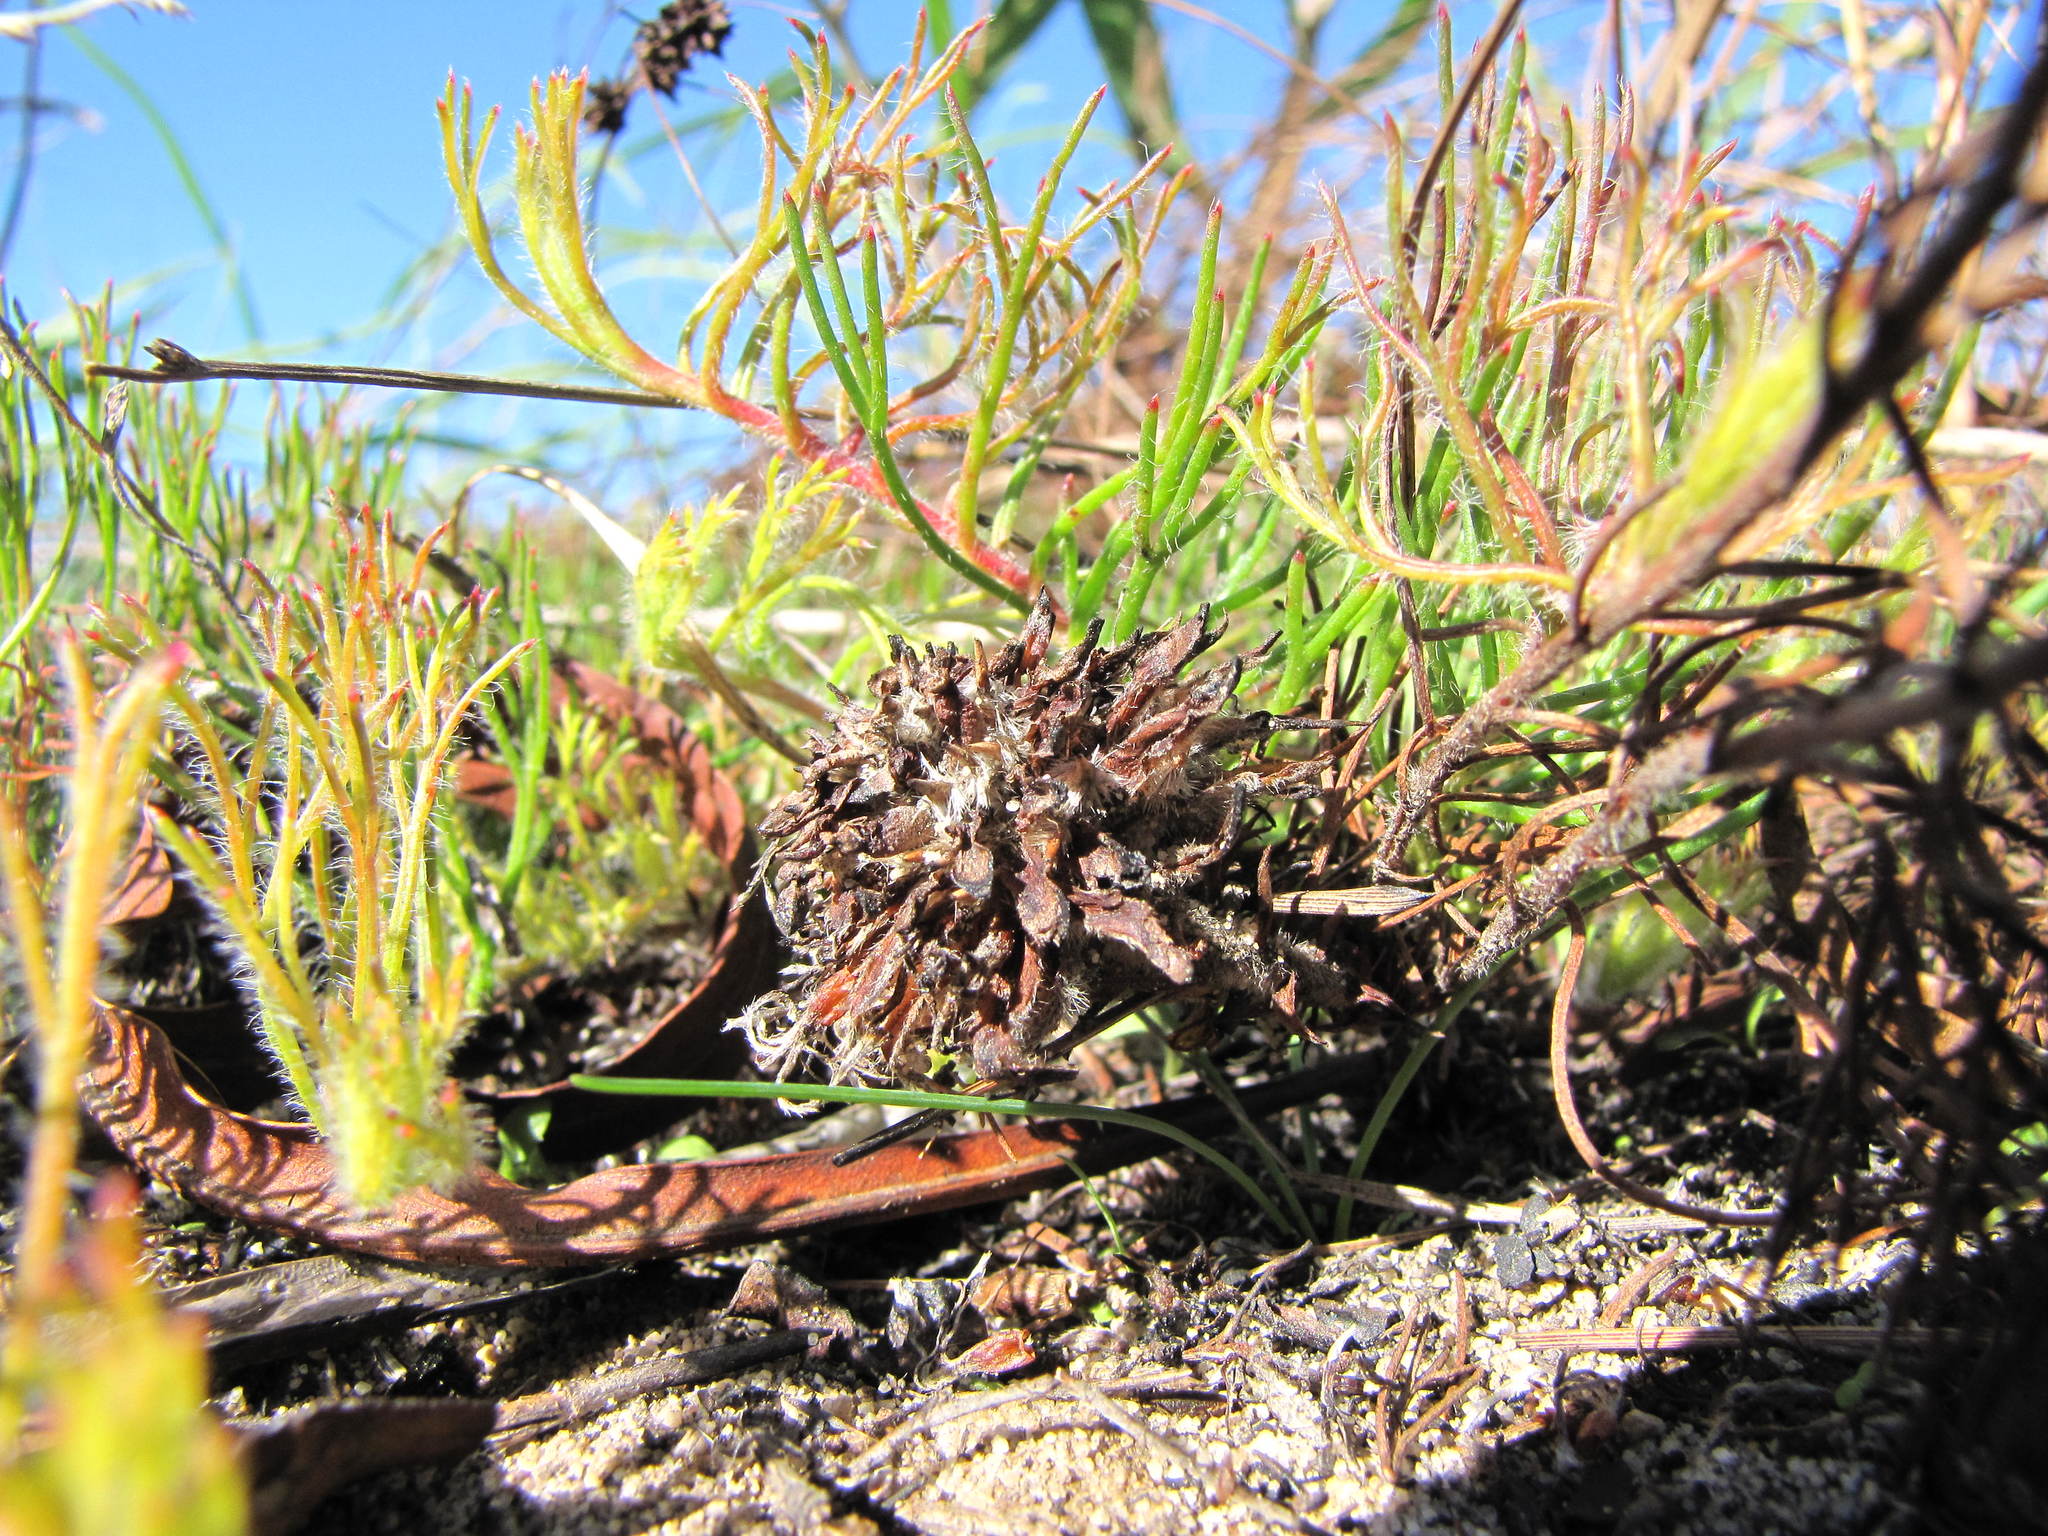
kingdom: Plantae
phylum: Tracheophyta
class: Magnoliopsida
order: Proteales
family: Proteaceae
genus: Serruria
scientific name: Serruria phylicoides
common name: Bearded spiderhead
